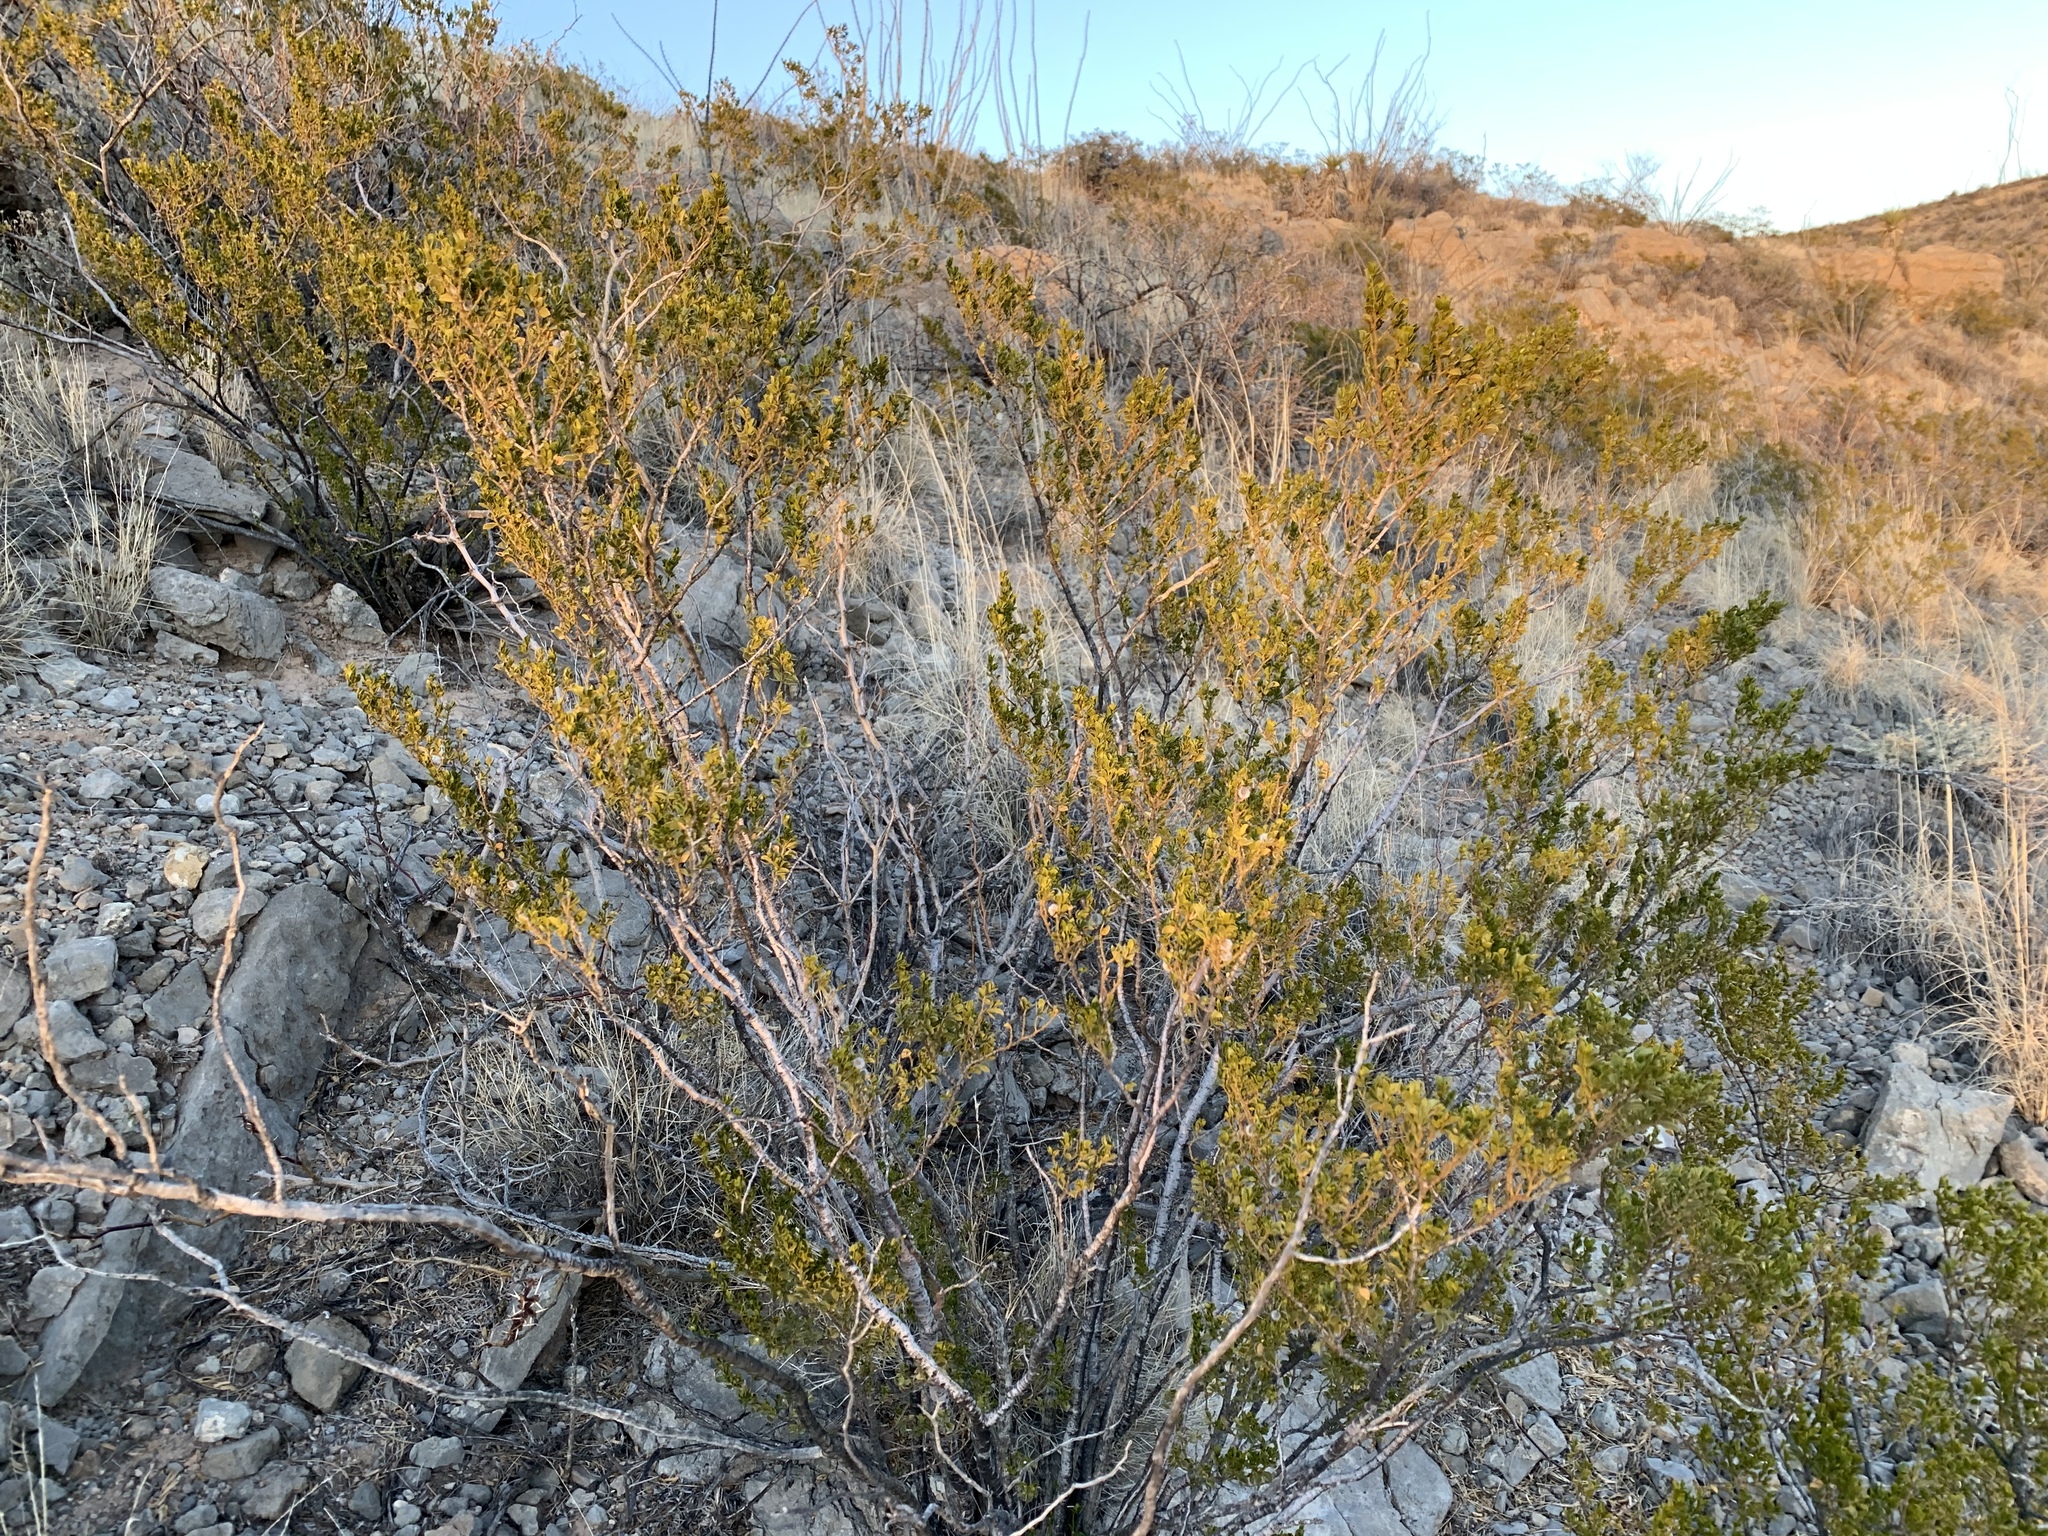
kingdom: Plantae
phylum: Tracheophyta
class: Magnoliopsida
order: Zygophyllales
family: Zygophyllaceae
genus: Larrea
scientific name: Larrea tridentata
